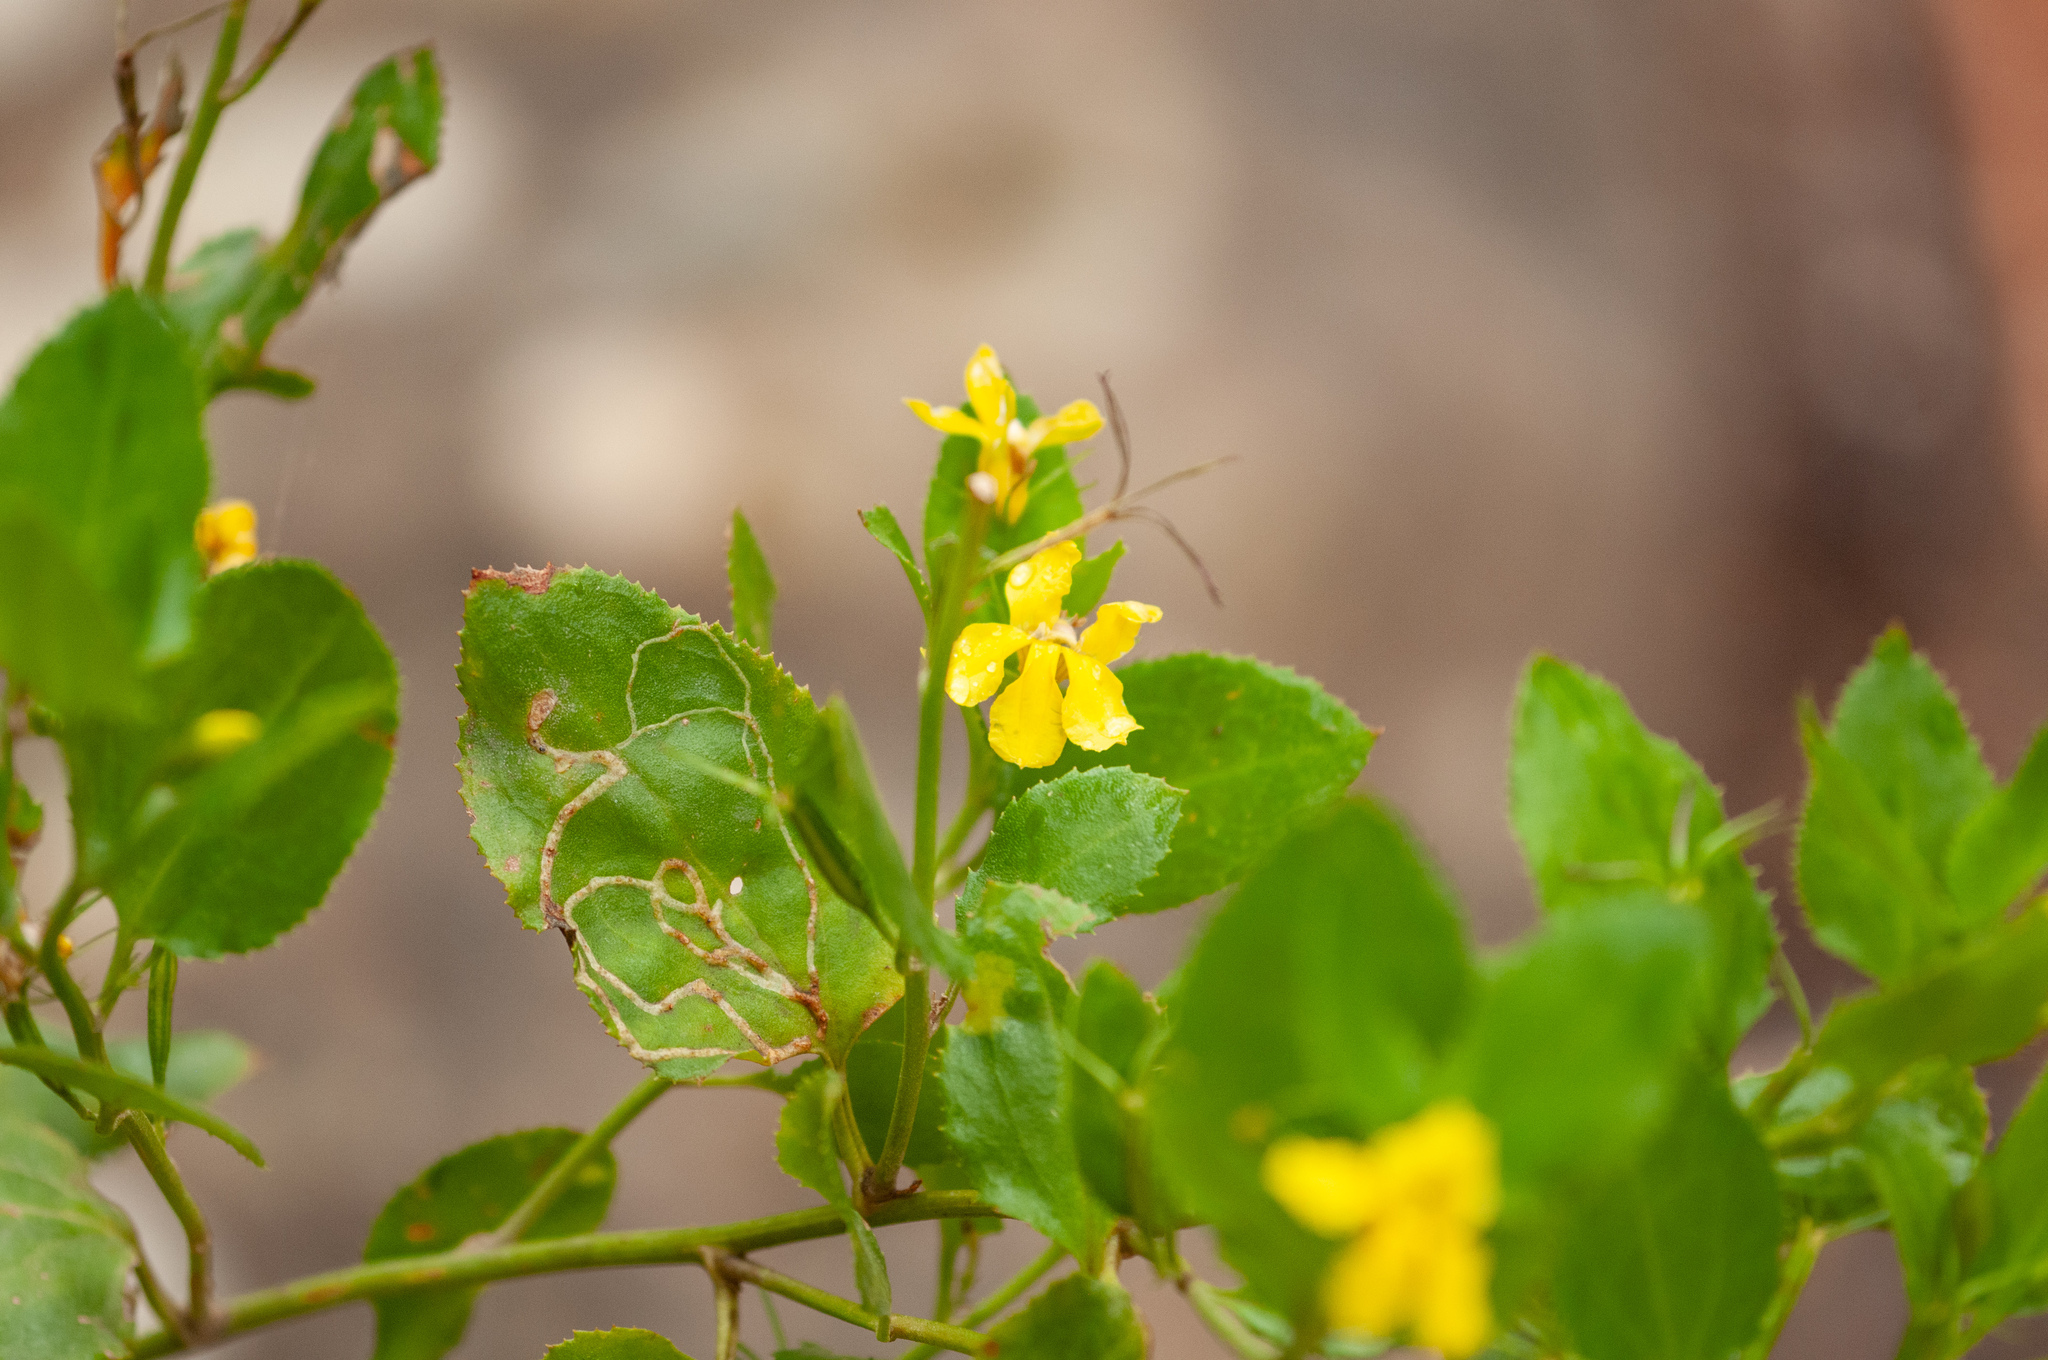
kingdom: Plantae
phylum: Tracheophyta
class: Magnoliopsida
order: Asterales
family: Goodeniaceae
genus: Goodenia
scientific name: Goodenia ovata
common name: Hop goodenia
